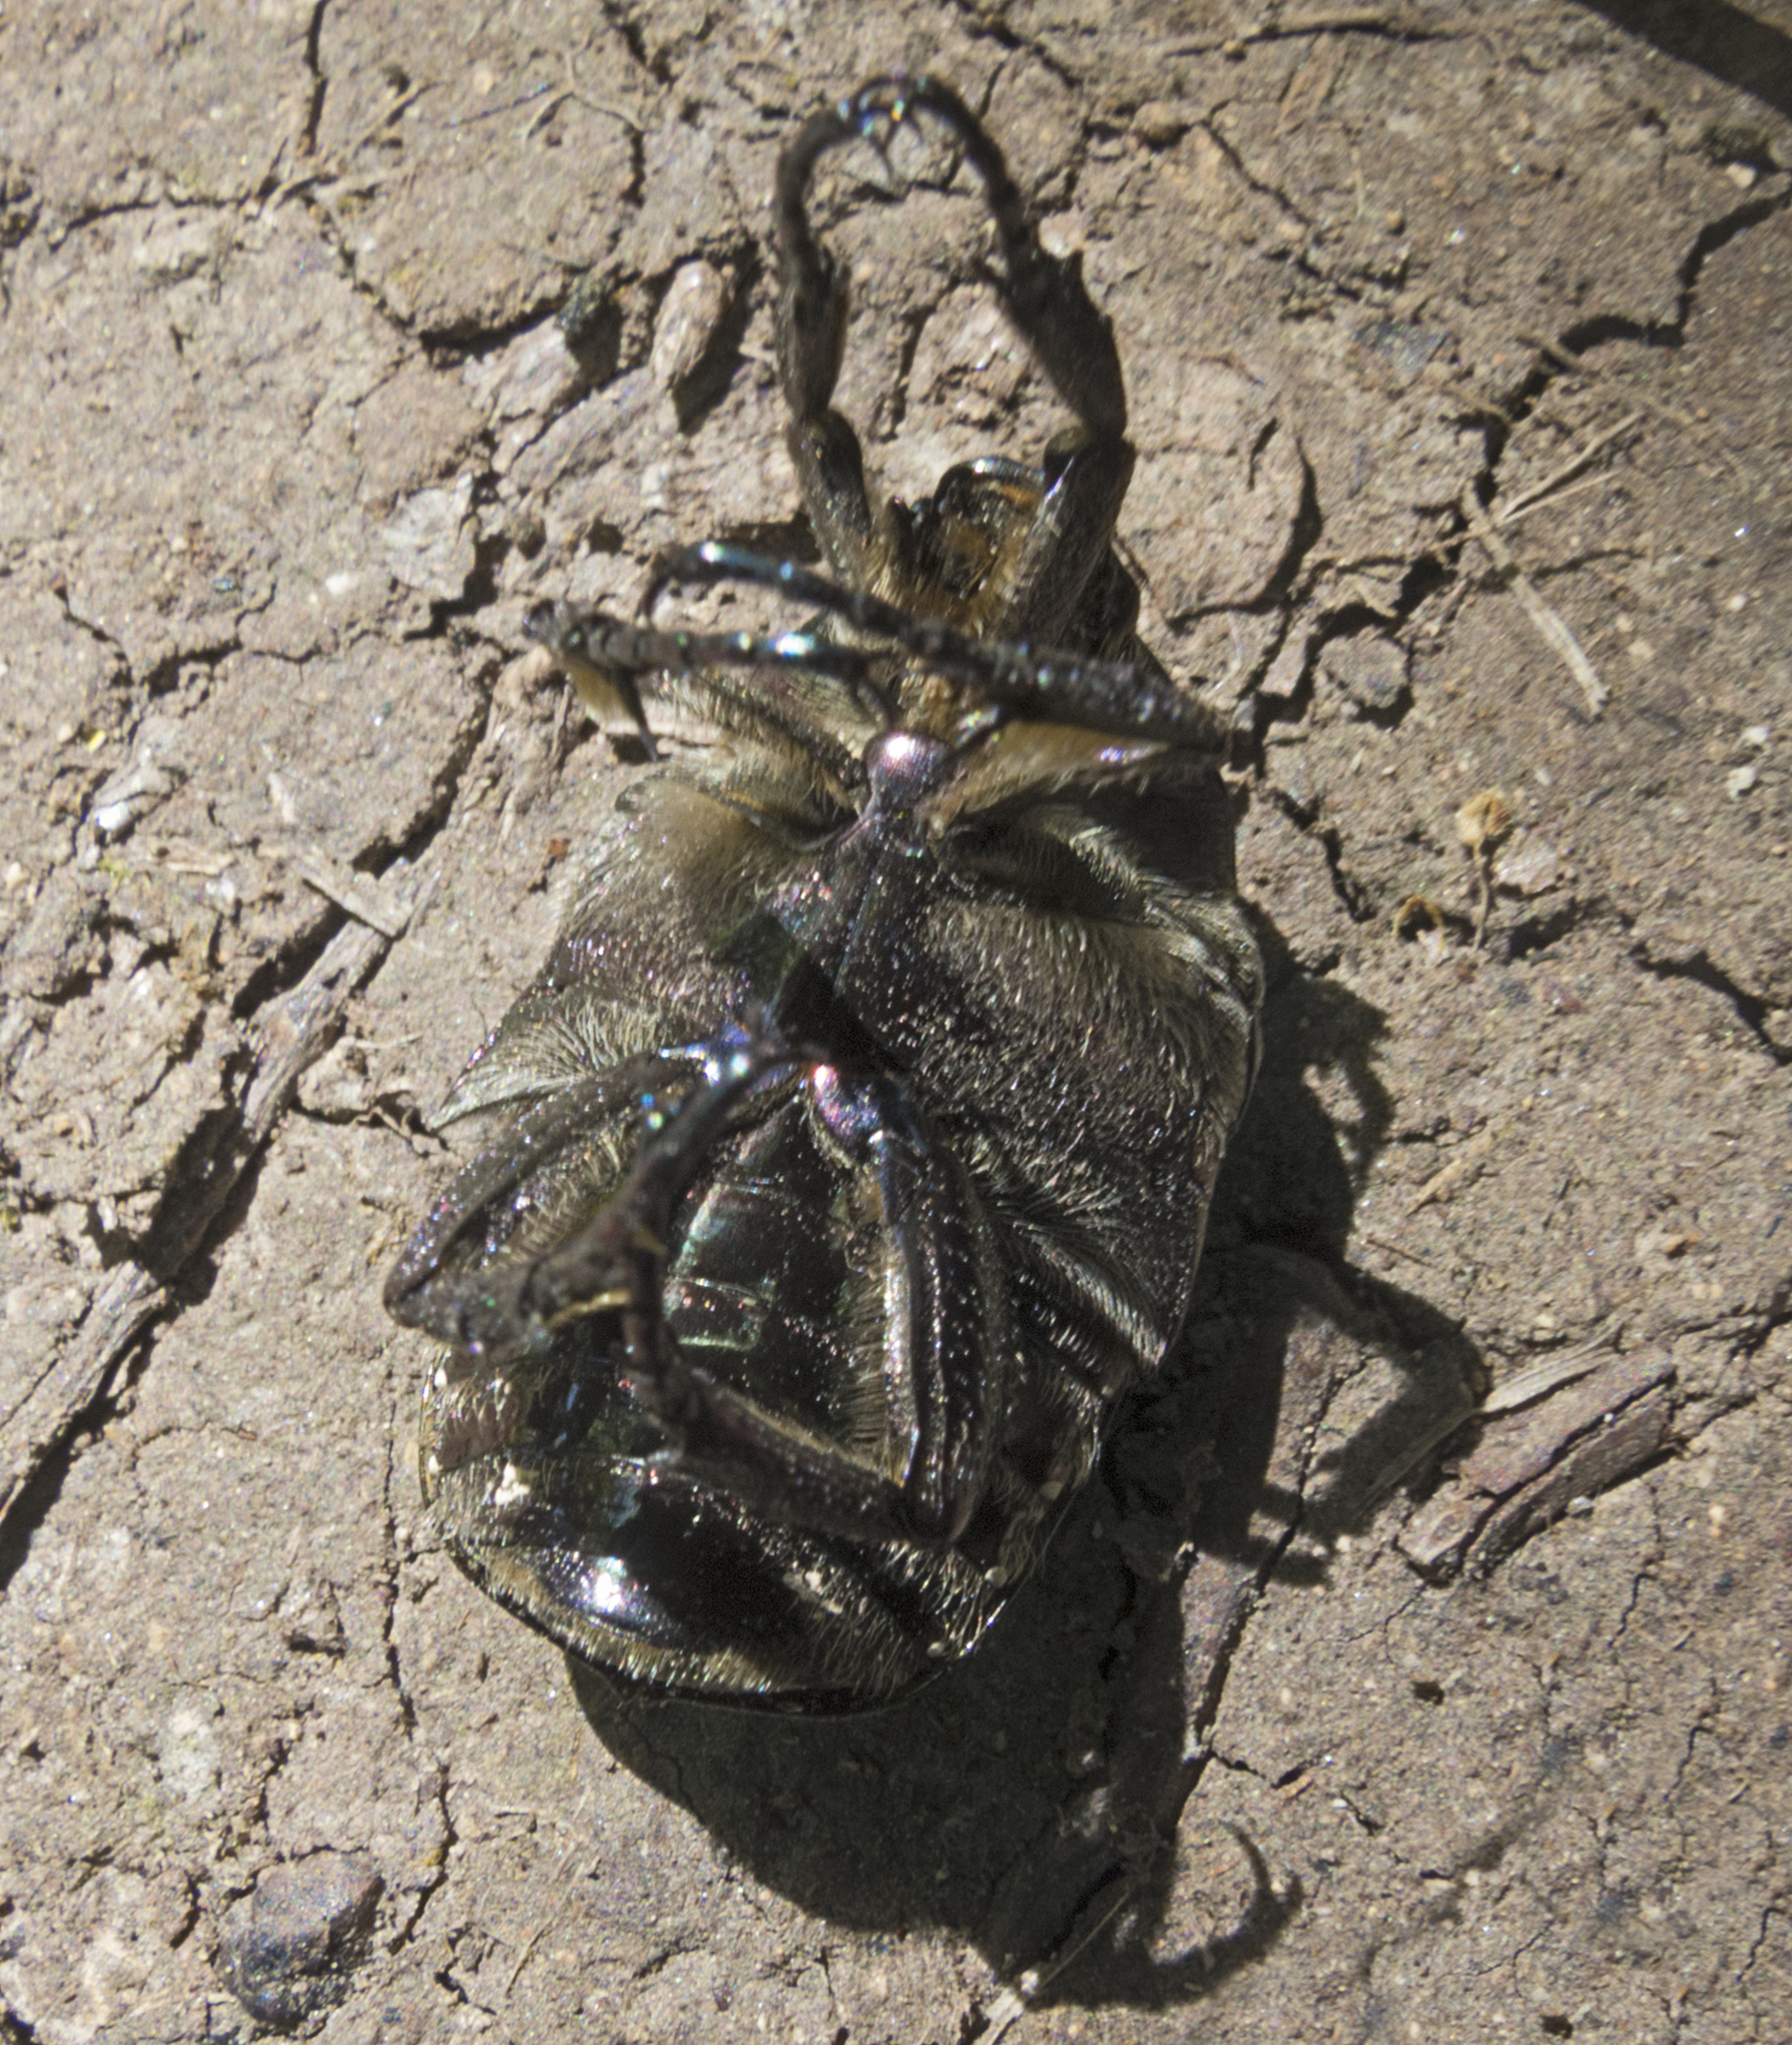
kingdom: Animalia
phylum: Arthropoda
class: Insecta
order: Coleoptera
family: Scarabaeidae
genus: Protaetia
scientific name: Protaetia cuprea
